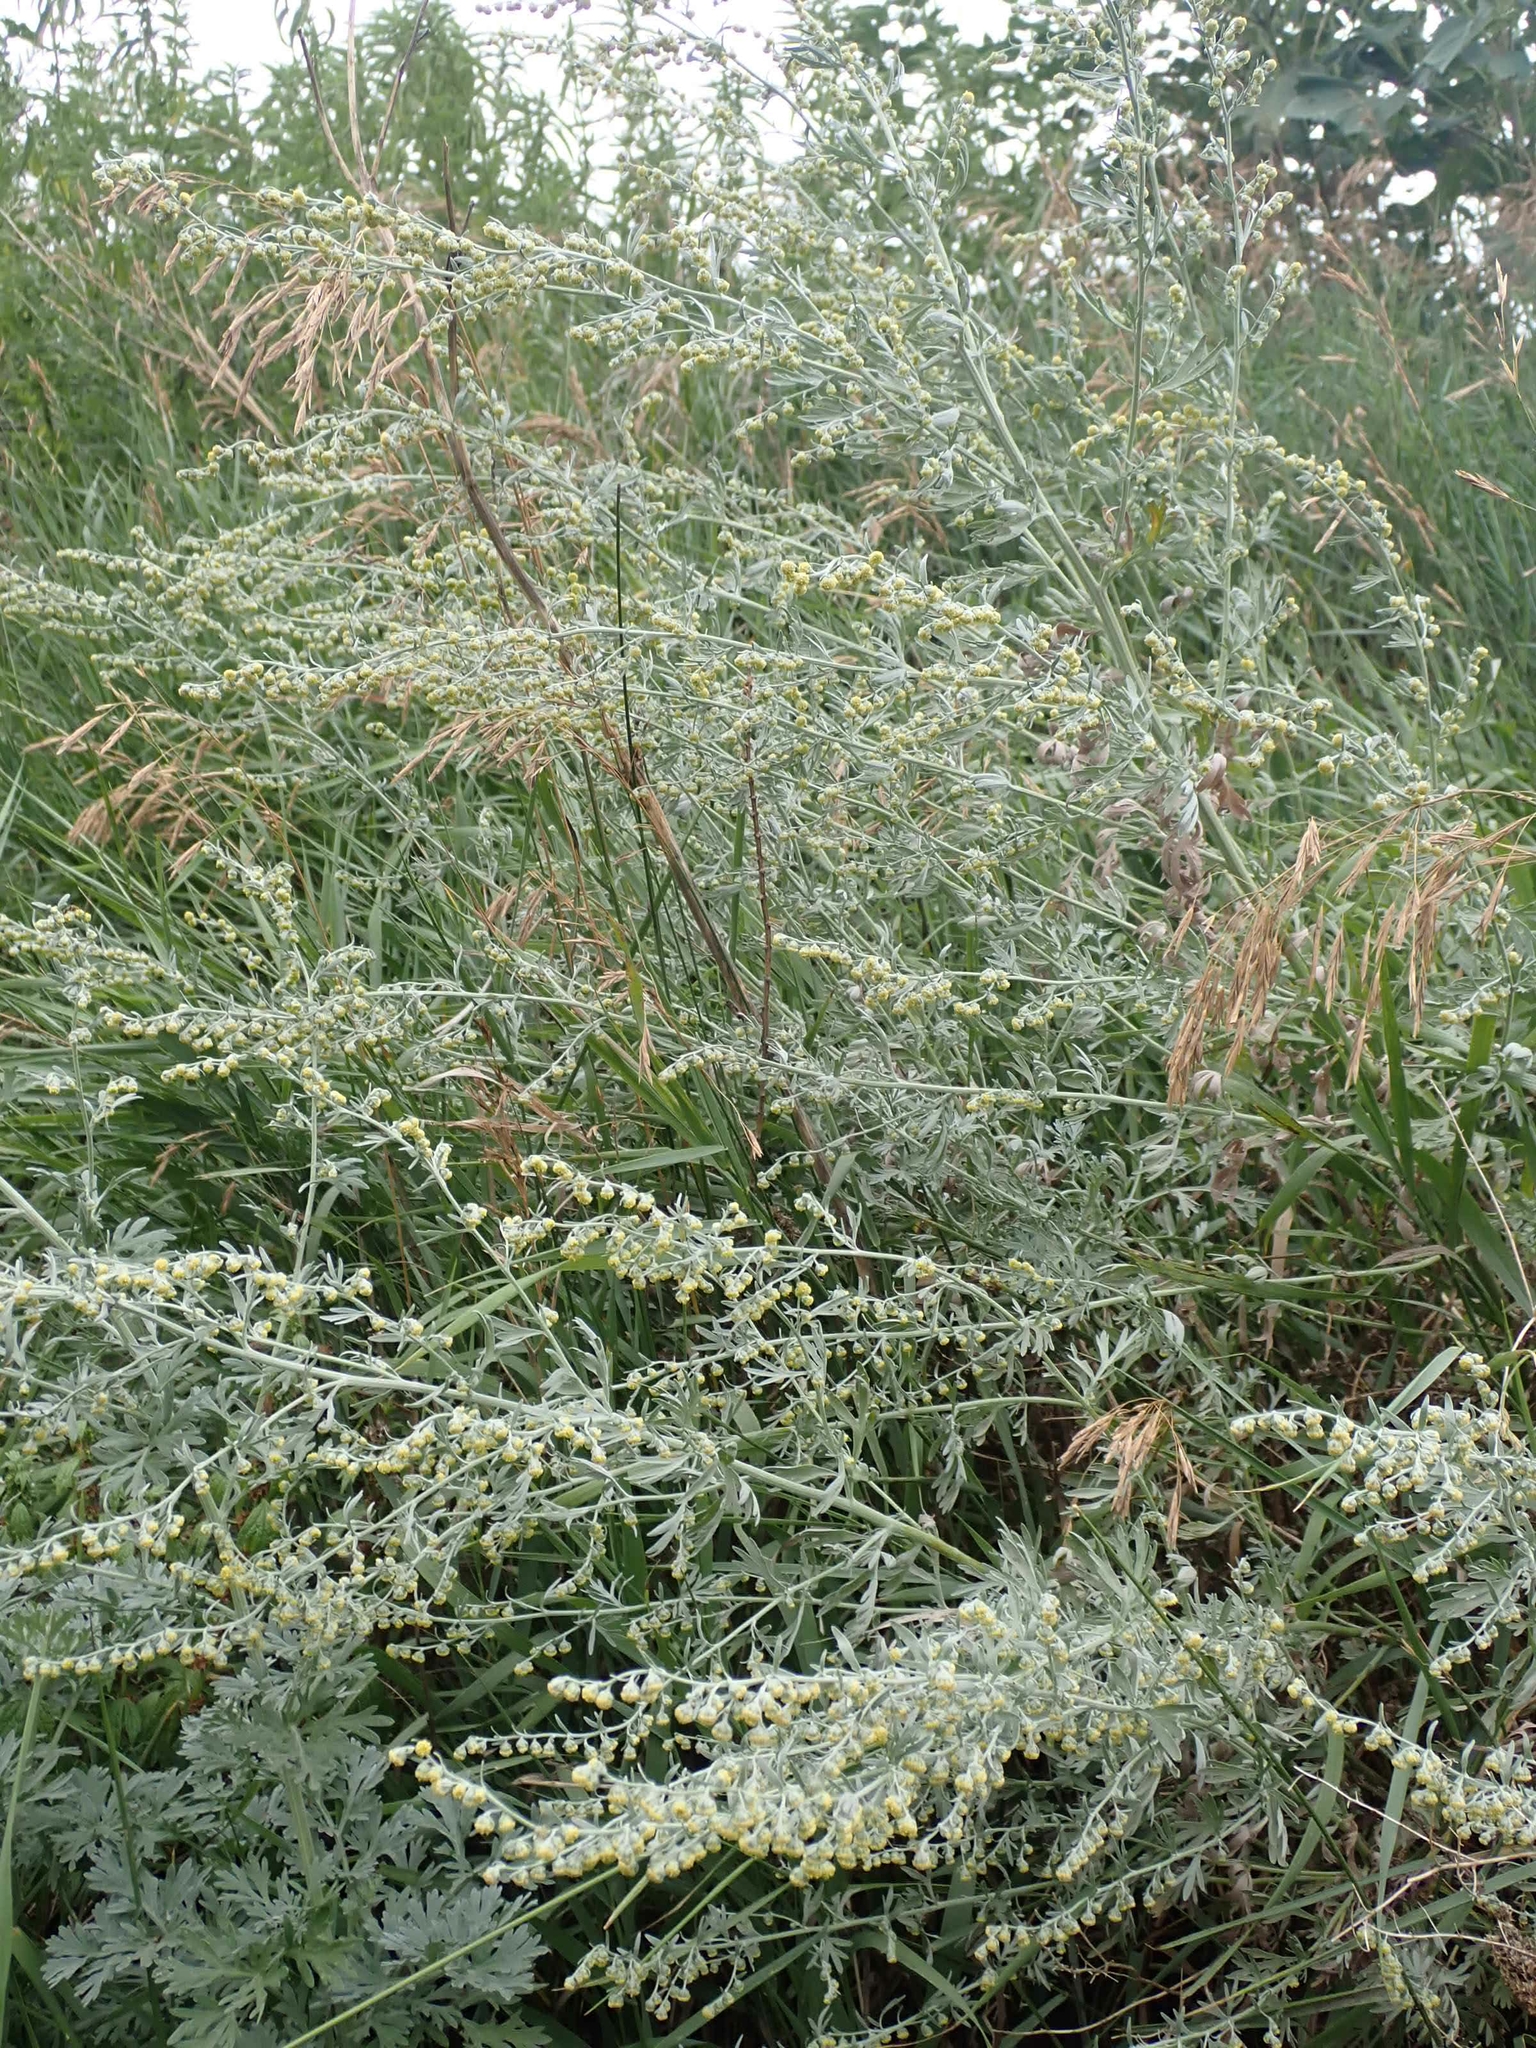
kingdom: Plantae
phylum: Tracheophyta
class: Magnoliopsida
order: Asterales
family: Asteraceae
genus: Artemisia
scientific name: Artemisia absinthium
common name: Wormwood
